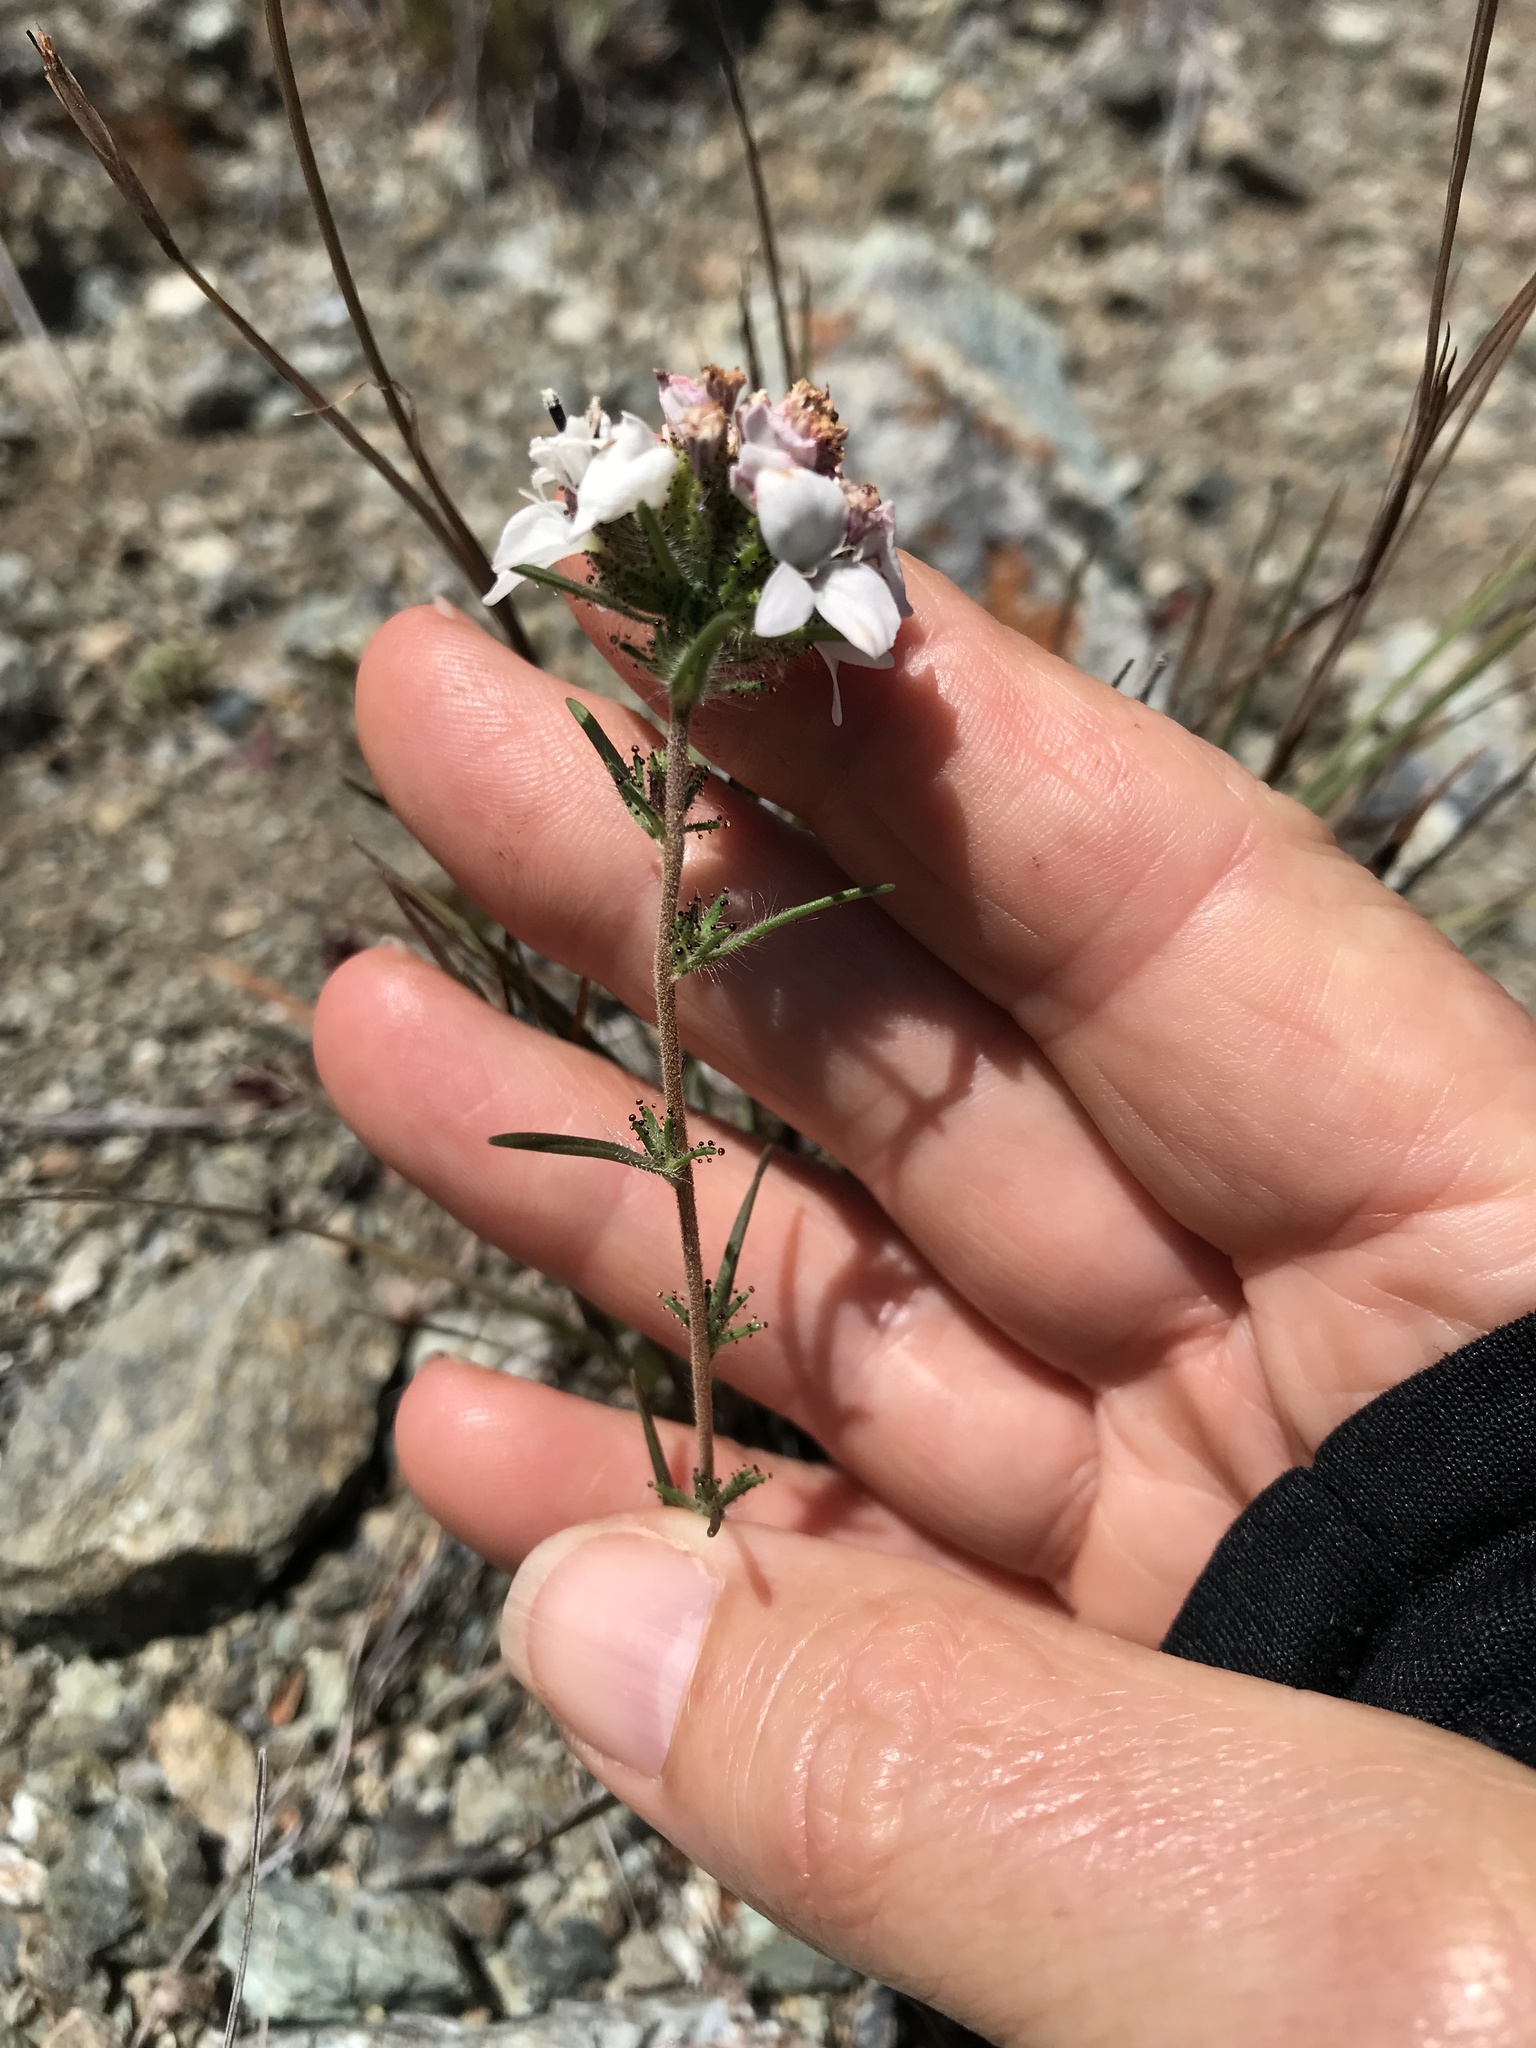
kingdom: Plantae
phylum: Tracheophyta
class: Magnoliopsida
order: Asterales
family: Asteraceae
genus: Calycadenia
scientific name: Calycadenia multiglandulosa
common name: Sticky calycadenia
